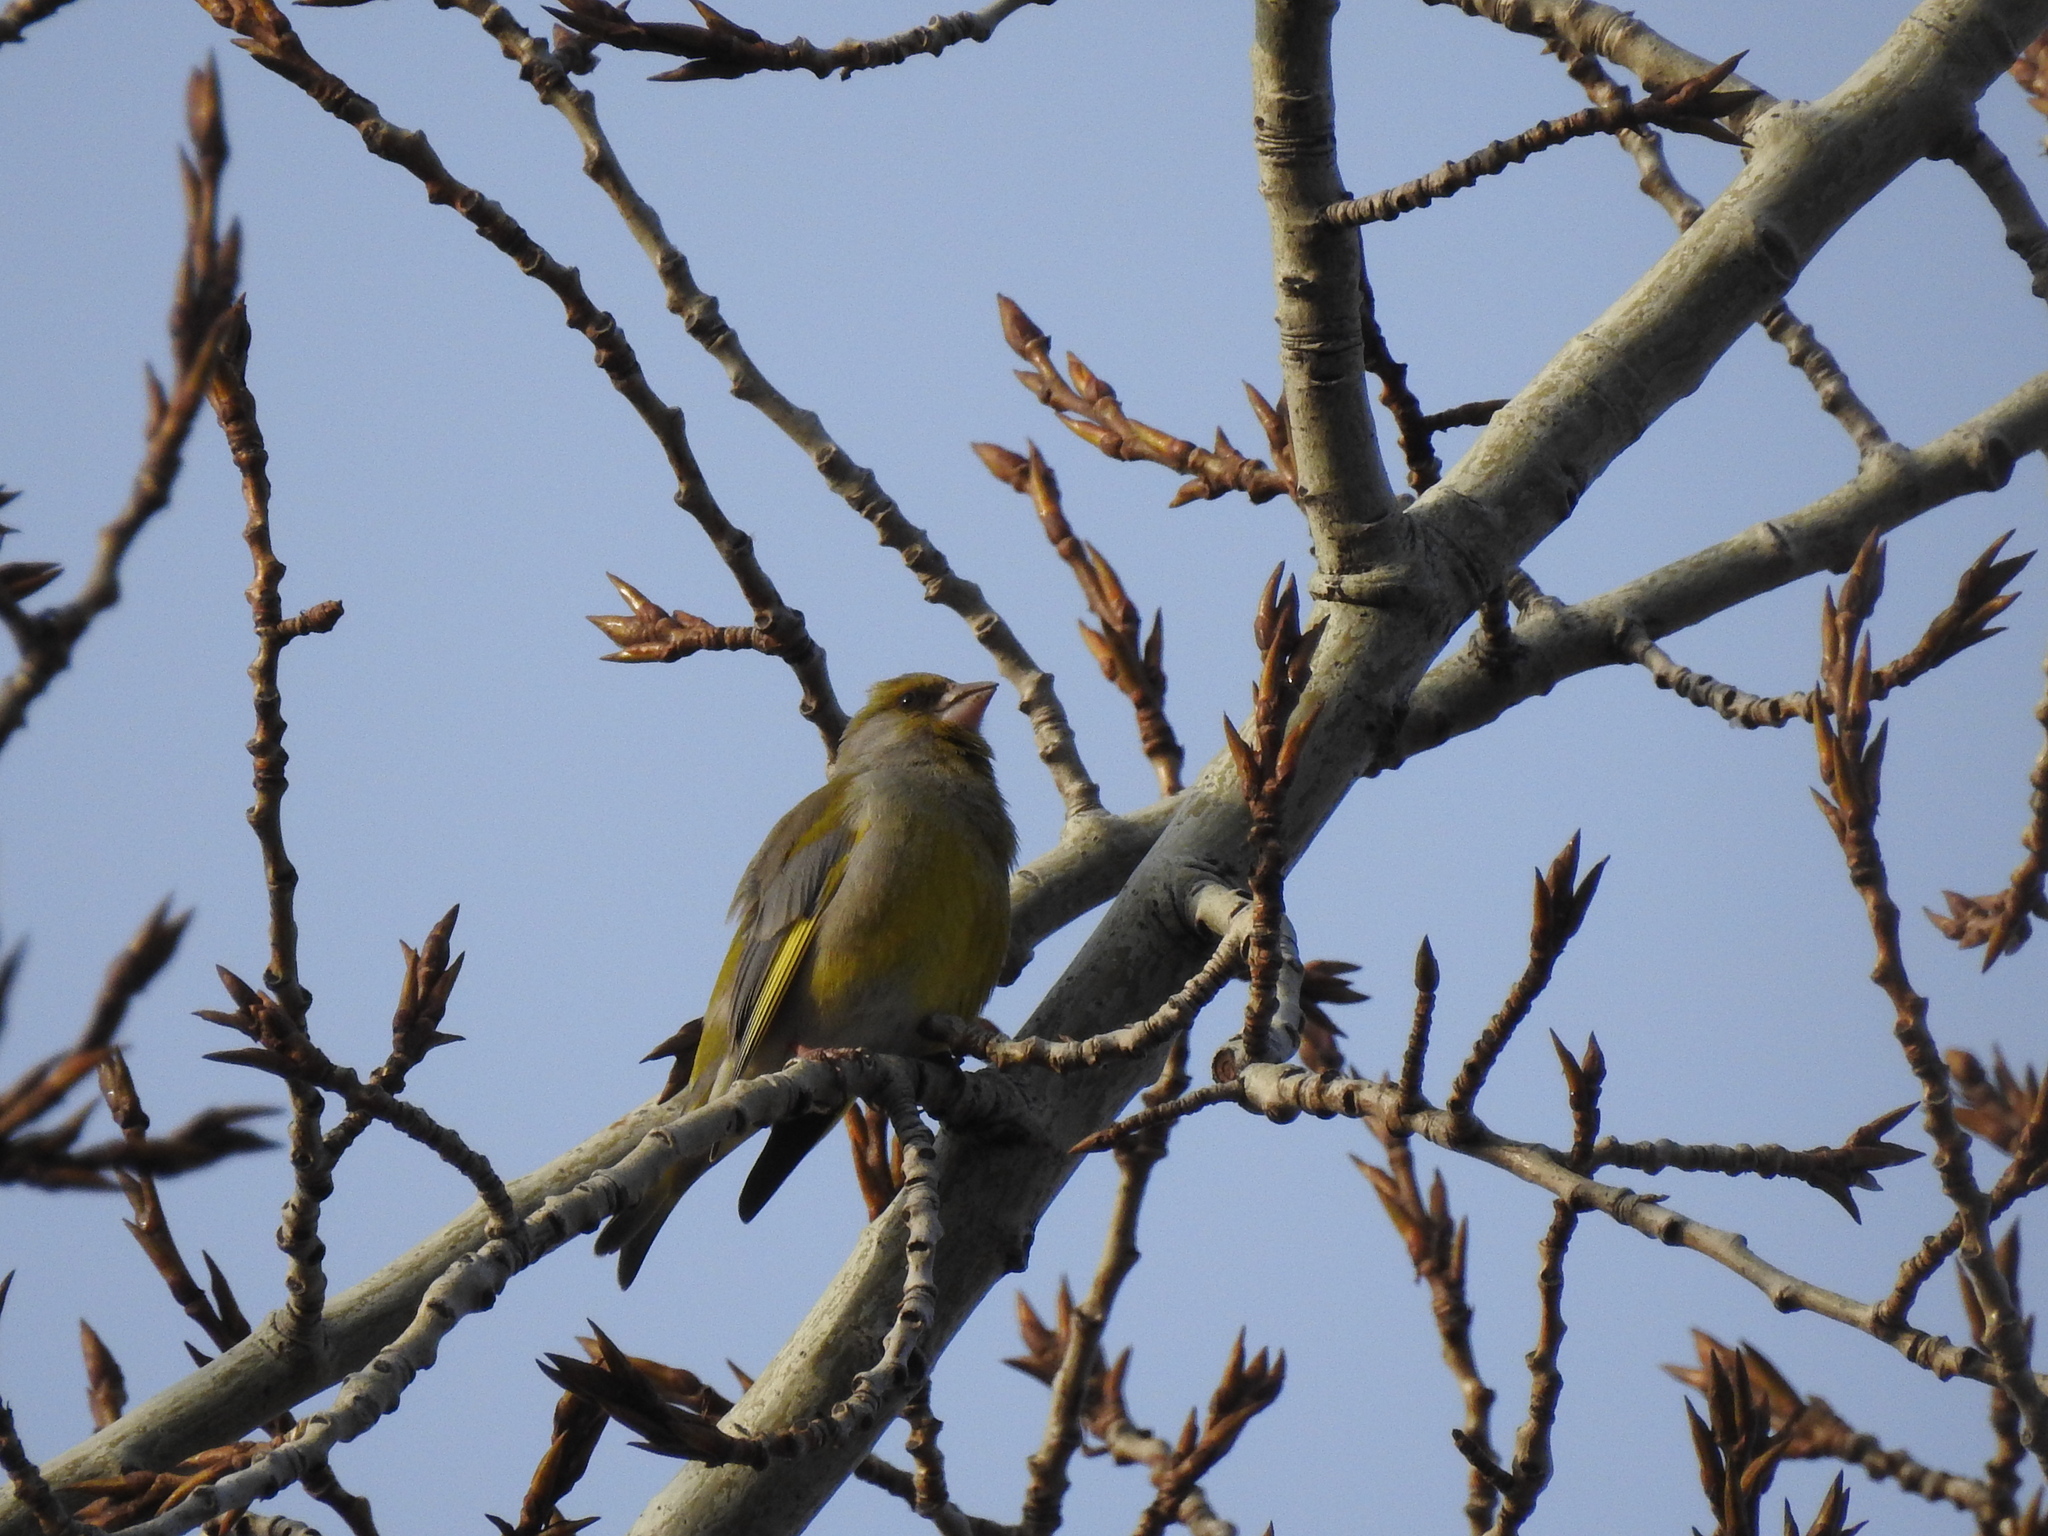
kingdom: Plantae
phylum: Tracheophyta
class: Liliopsida
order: Poales
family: Poaceae
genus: Chloris
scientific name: Chloris chloris
